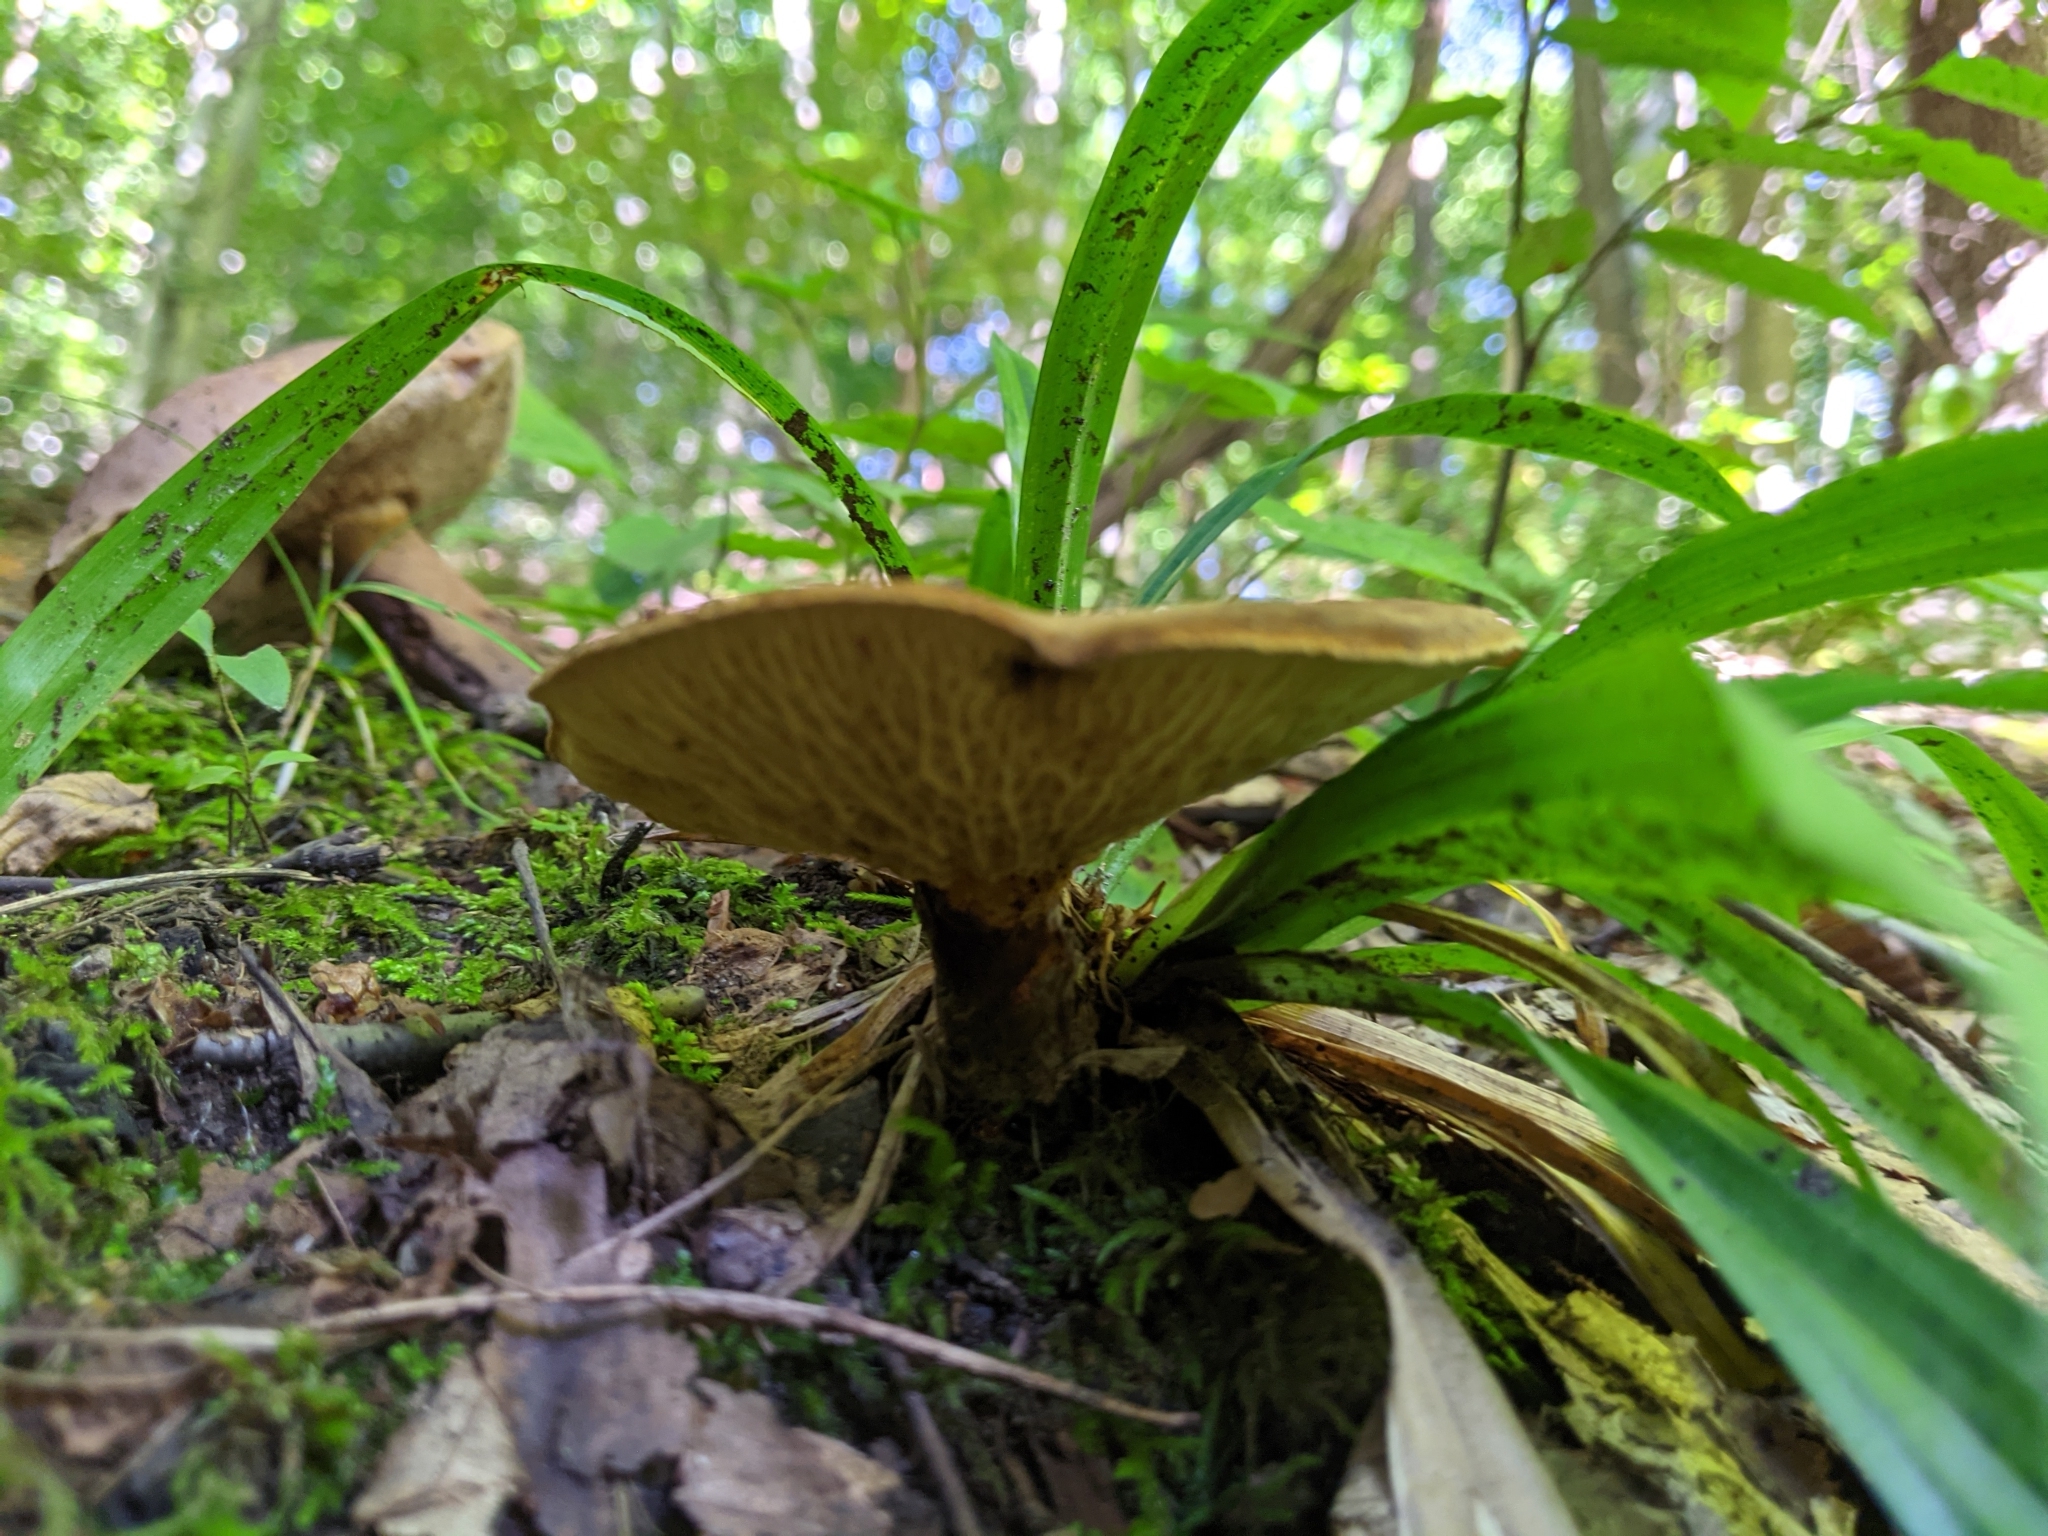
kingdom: Fungi
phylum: Basidiomycota
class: Agaricomycetes
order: Boletales
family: Boletinellaceae
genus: Boletinellus
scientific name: Boletinellus merulioides
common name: Ash tree bolete
